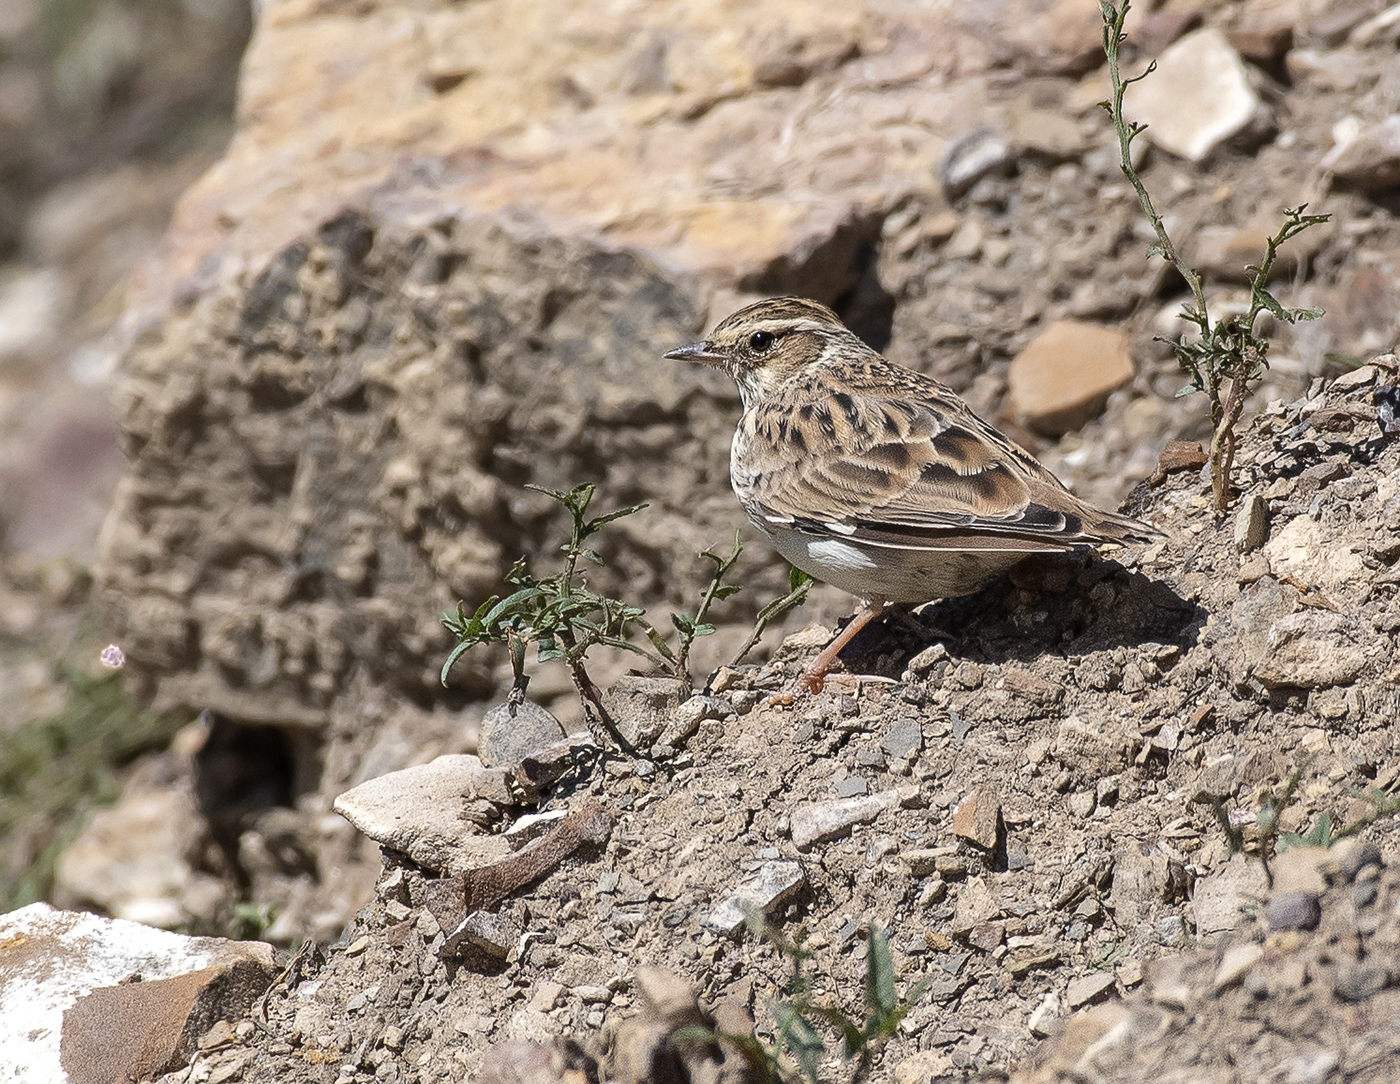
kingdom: Animalia
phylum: Chordata
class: Aves
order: Passeriformes
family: Alaudidae
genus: Lullula
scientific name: Lullula arborea
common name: Woodlark
